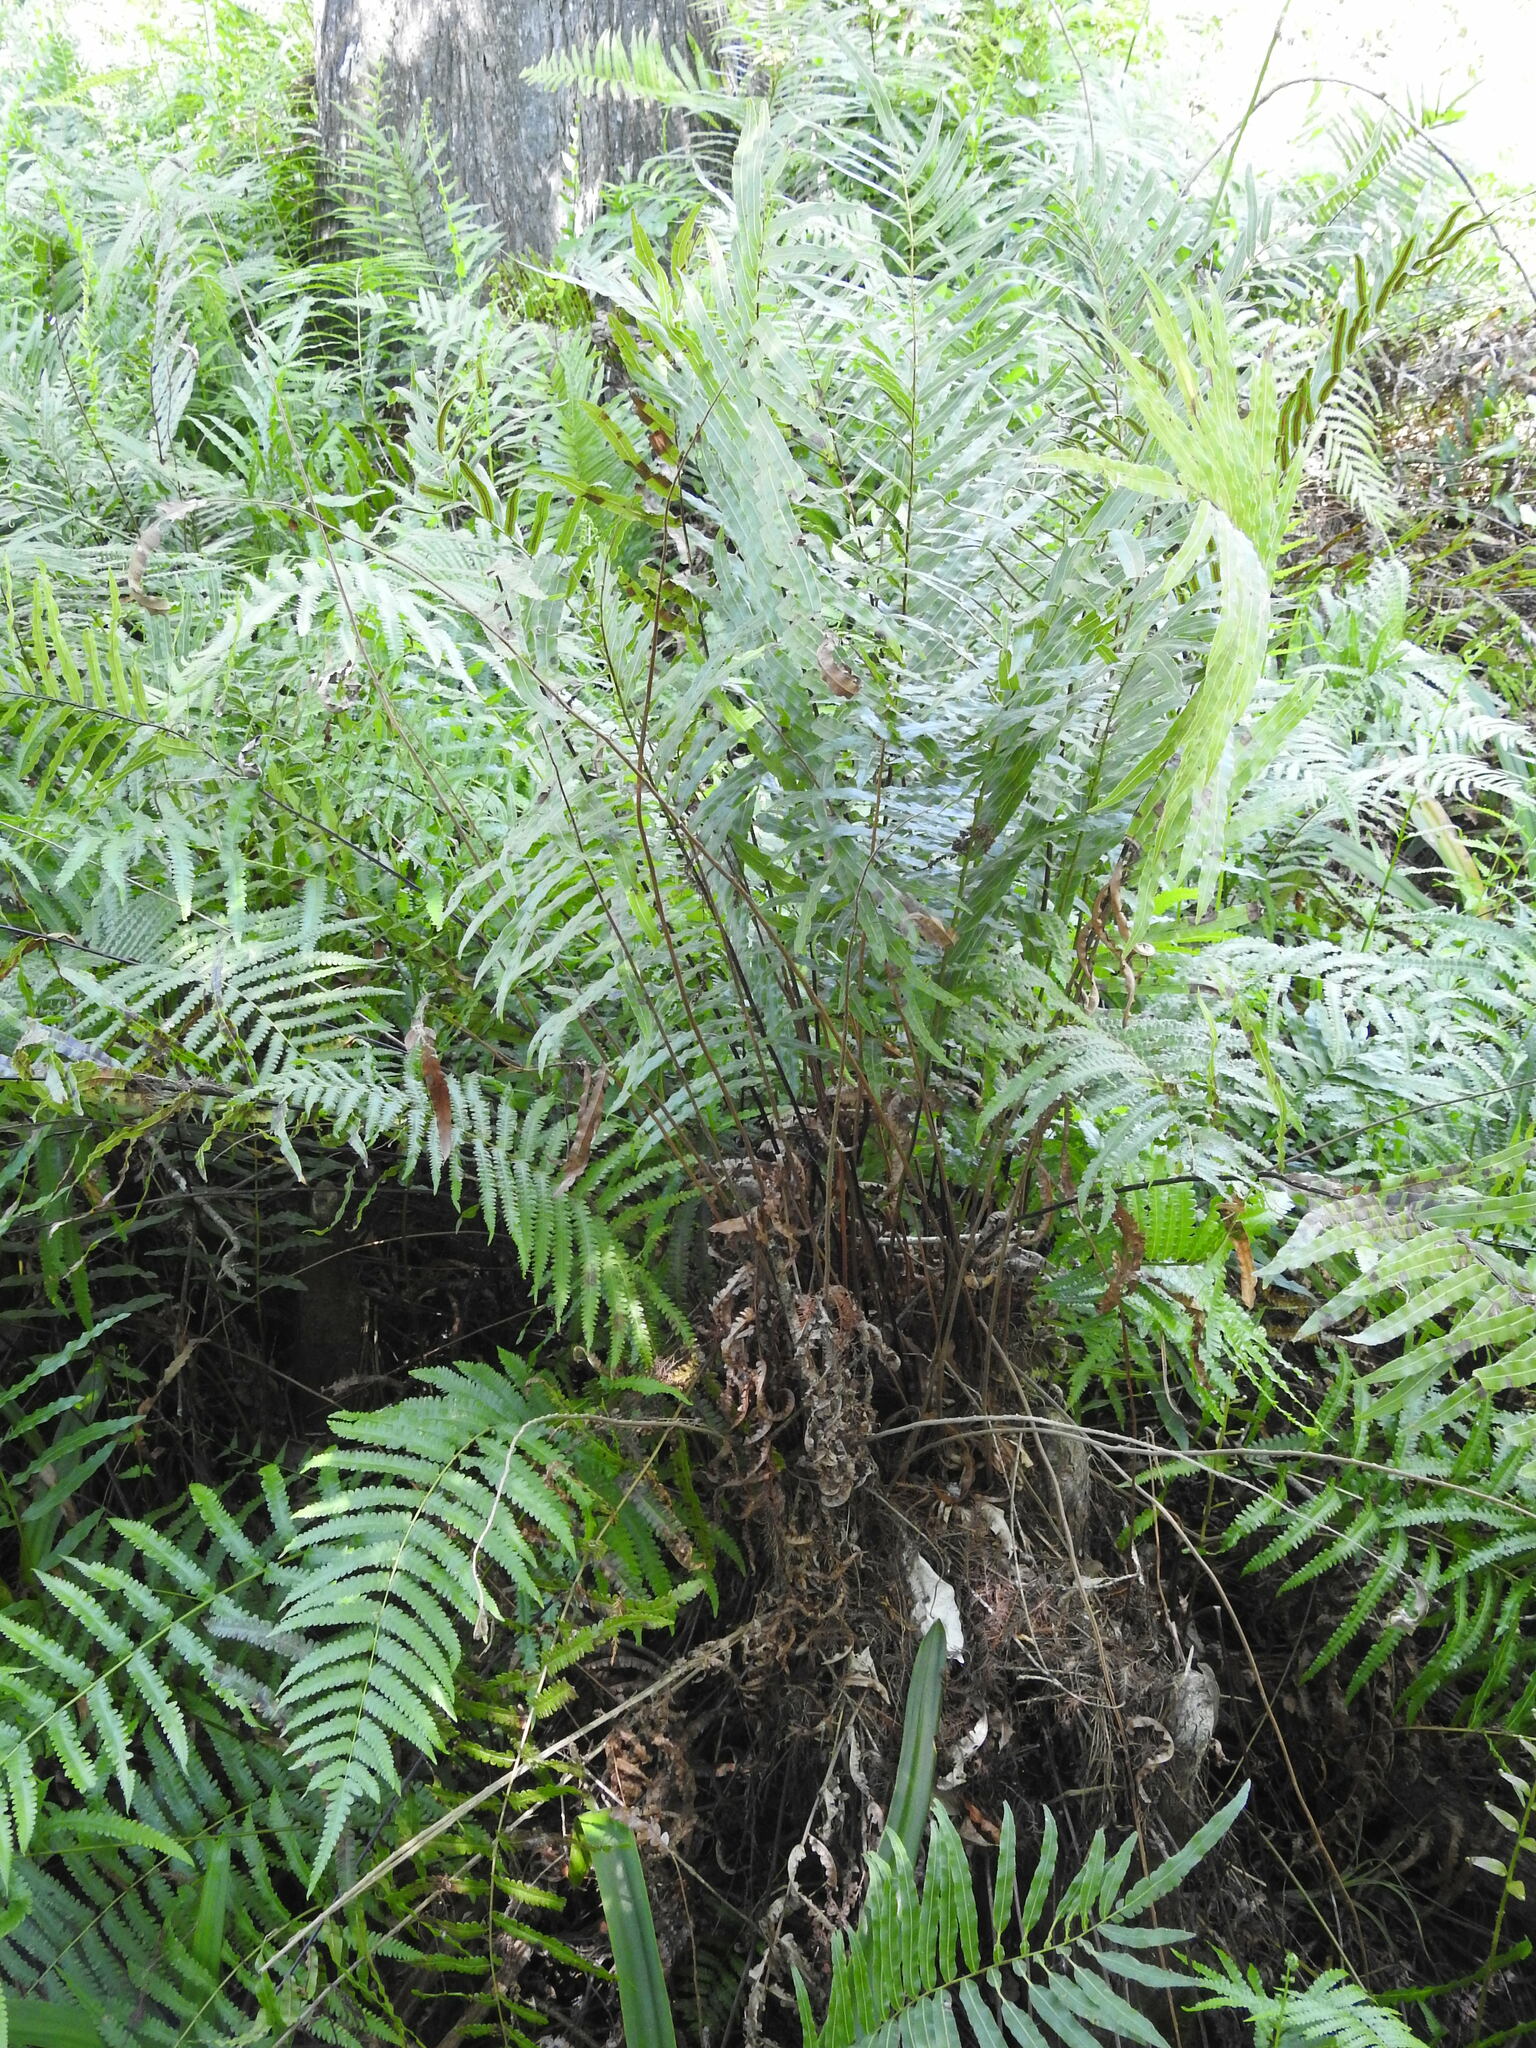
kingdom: Plantae
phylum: Tracheophyta
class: Polypodiopsida
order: Polypodiales
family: Blechnaceae
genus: Telmatoblechnum
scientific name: Telmatoblechnum serrulatum
